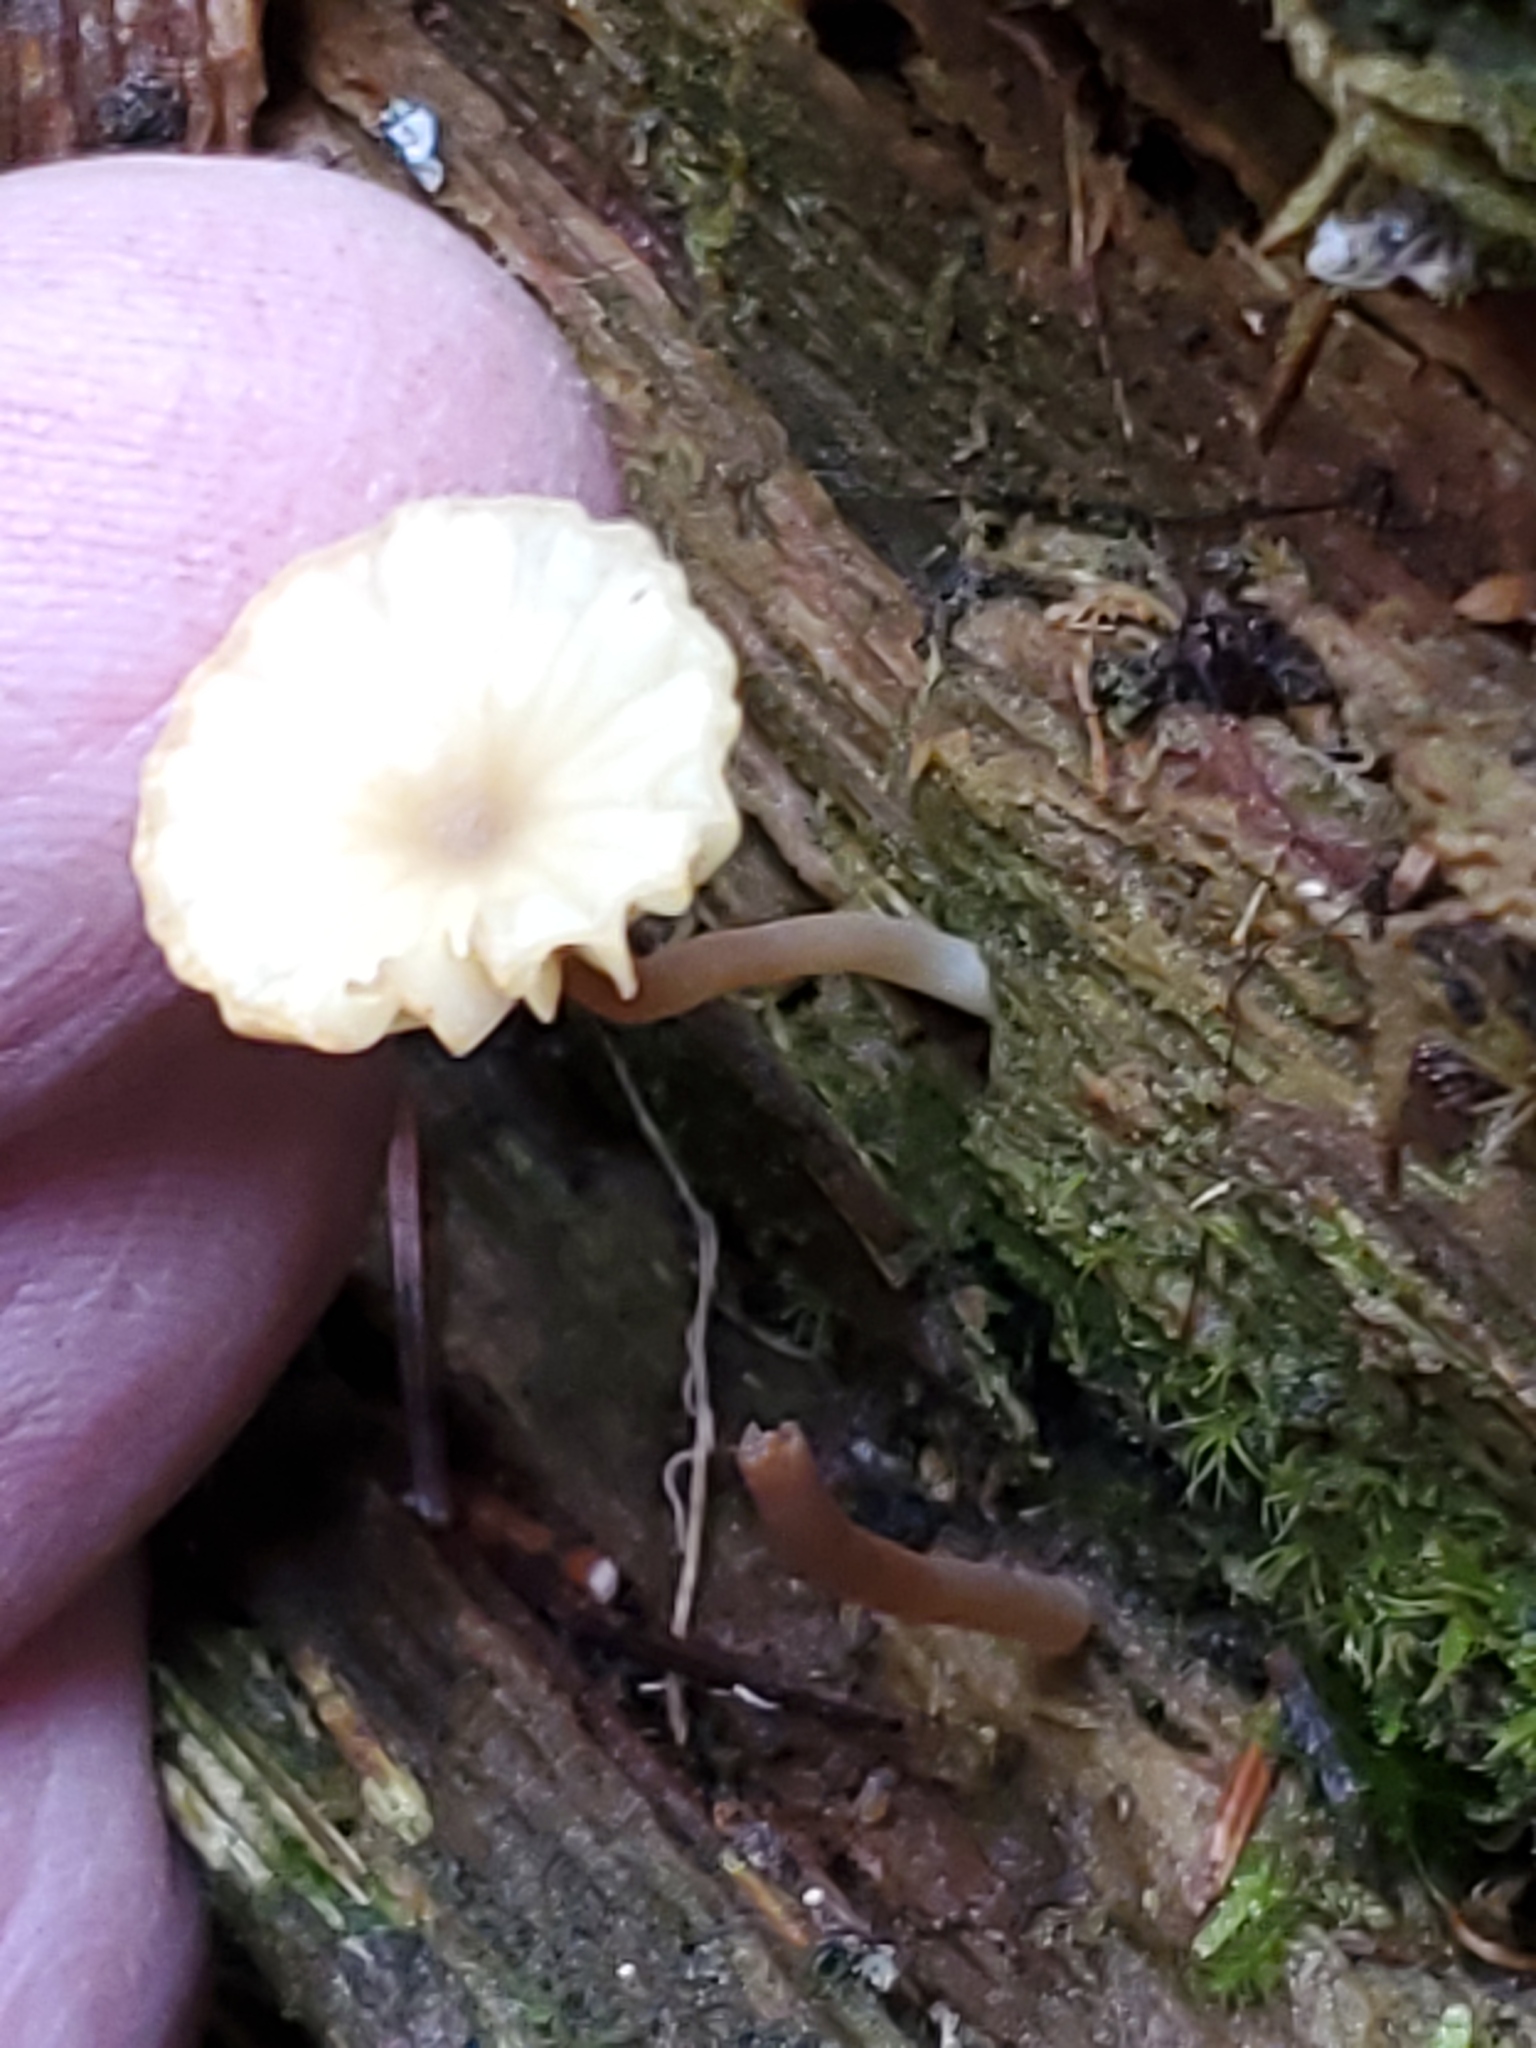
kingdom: Fungi
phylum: Basidiomycota
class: Agaricomycetes
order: Agaricales
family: Hygrophoraceae
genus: Lichenomphalia
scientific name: Lichenomphalia
